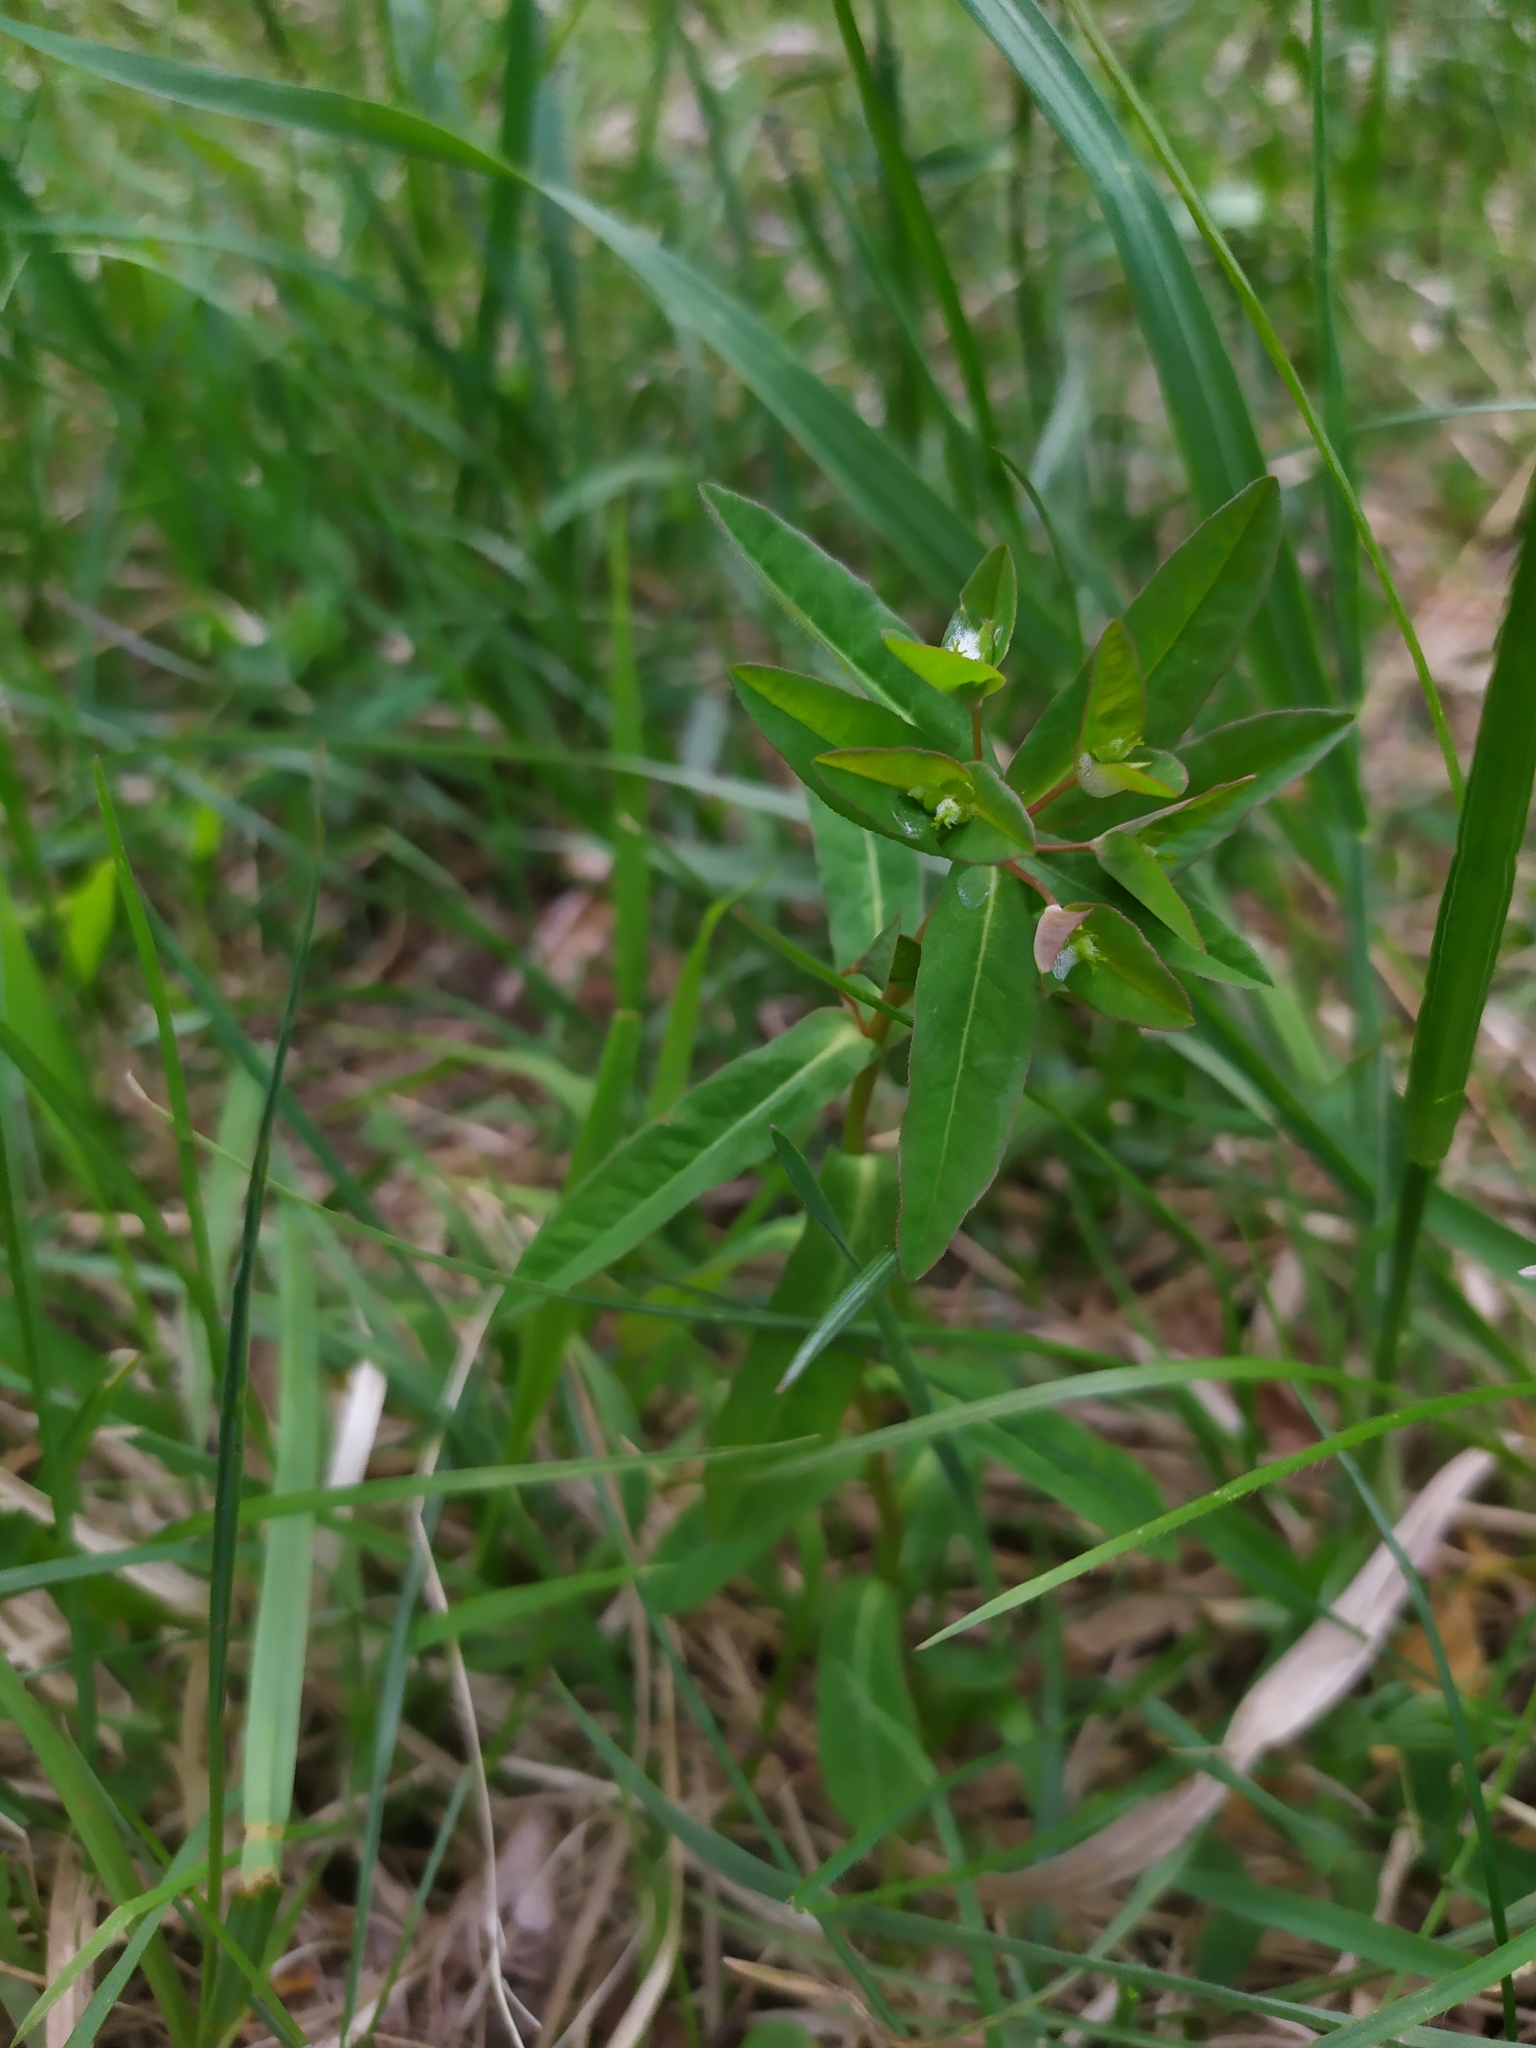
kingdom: Plantae
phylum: Tracheophyta
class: Magnoliopsida
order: Malpighiales
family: Euphorbiaceae
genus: Euphorbia
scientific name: Euphorbia dulcis
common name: Sweet spurge
